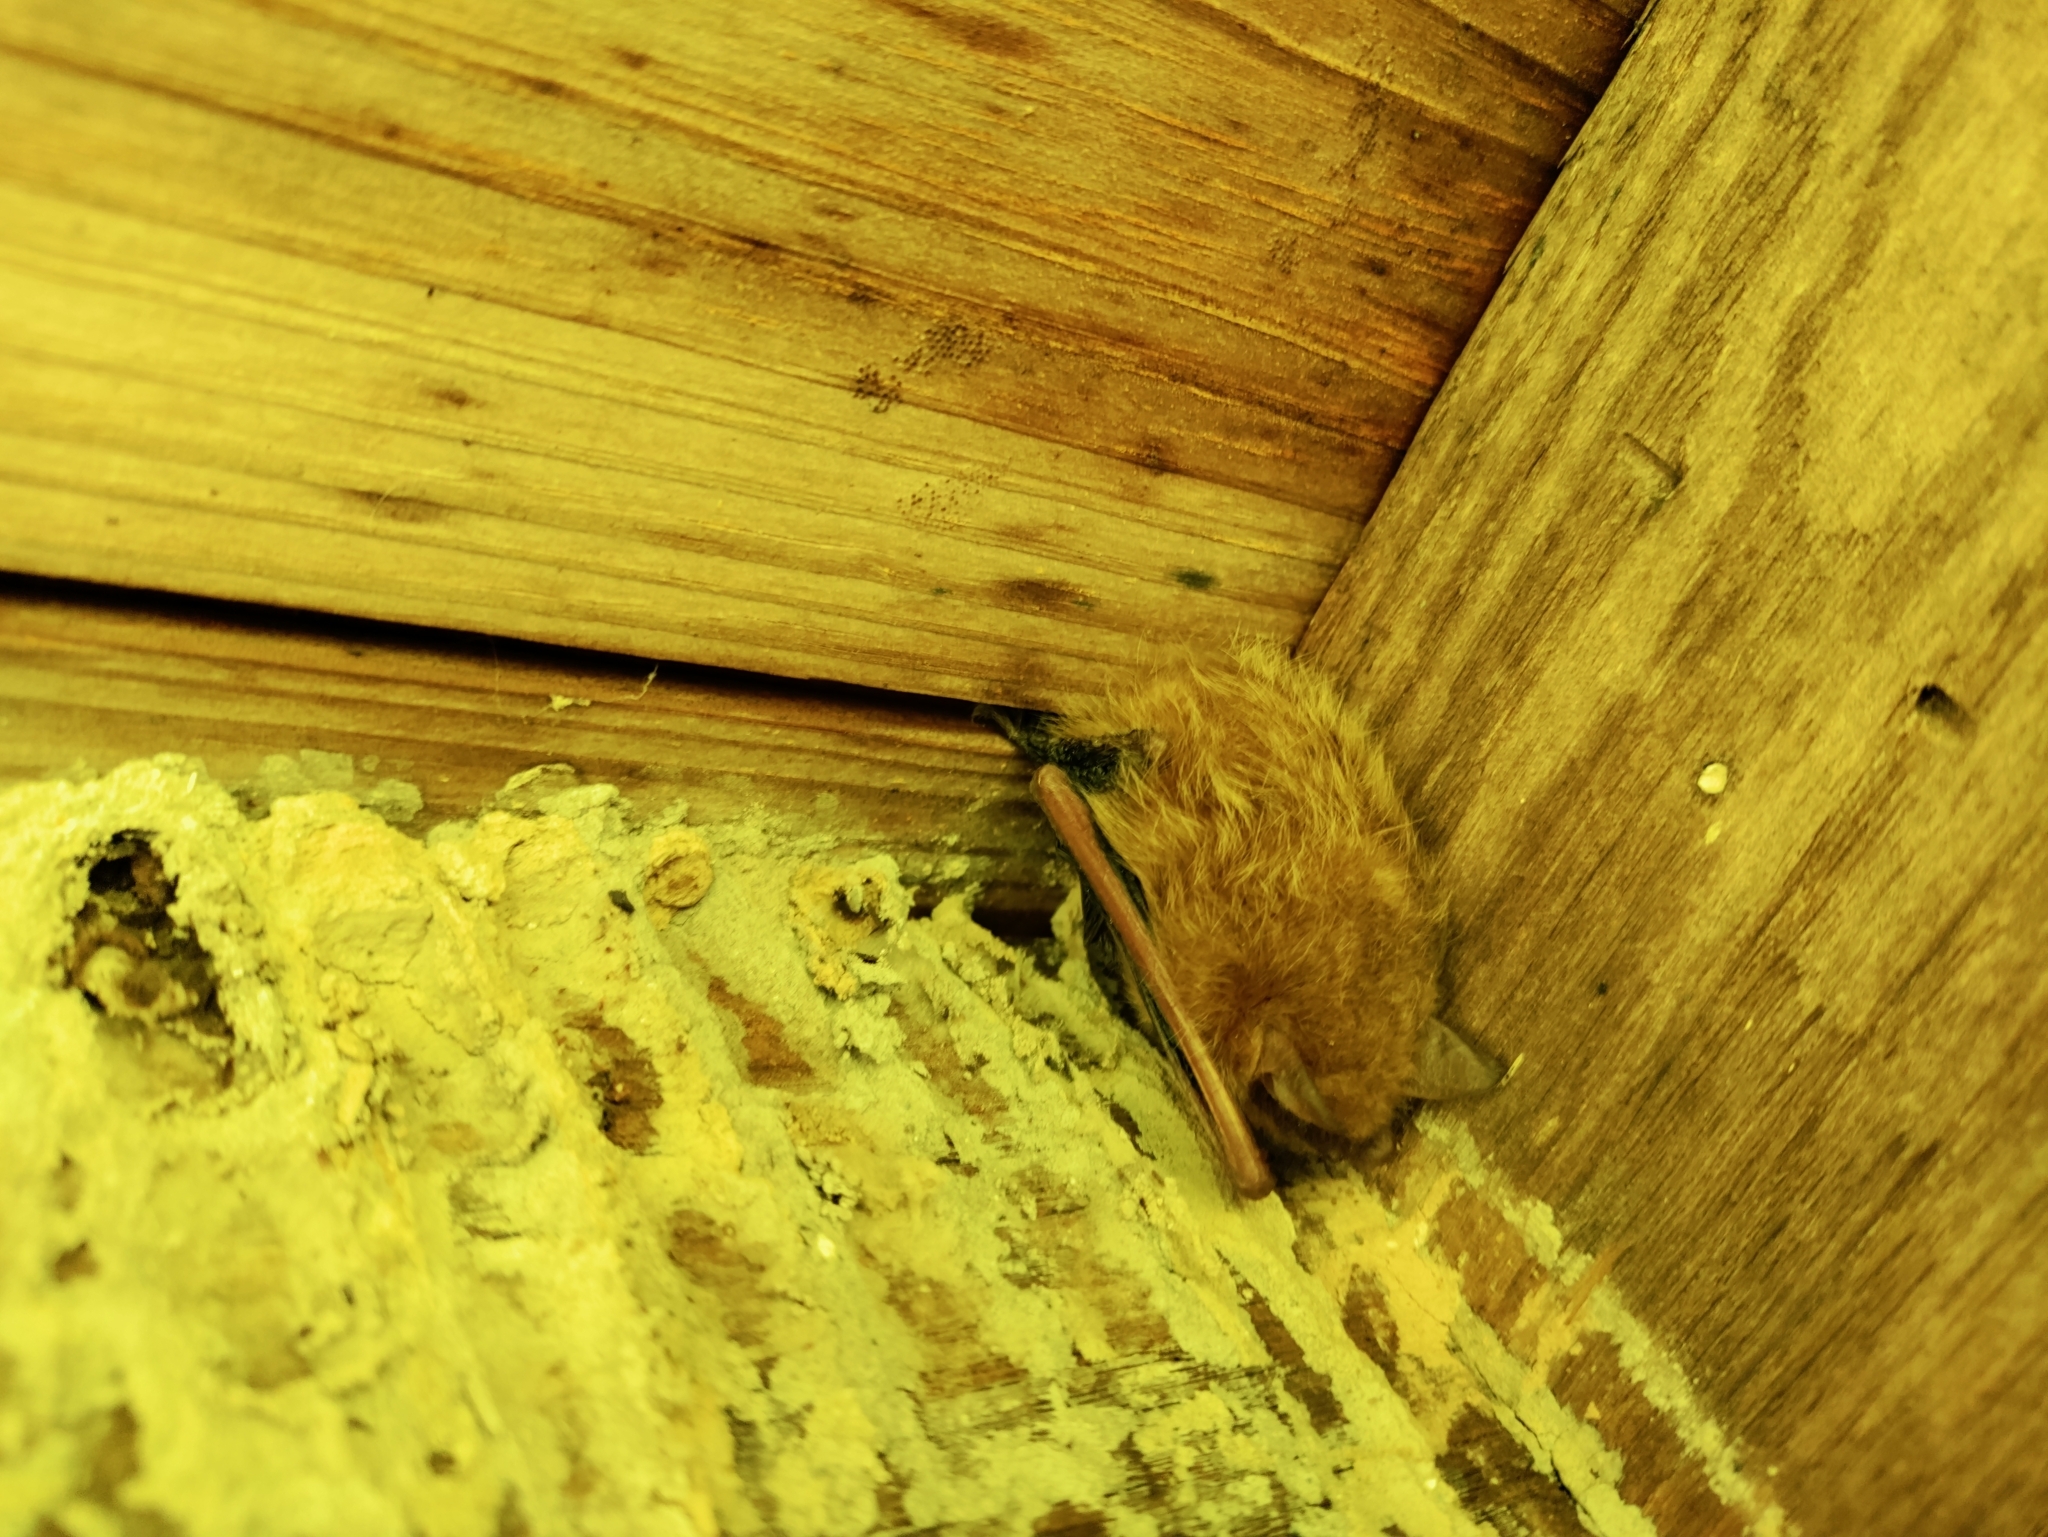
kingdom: Animalia
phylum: Chordata
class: Mammalia
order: Chiroptera
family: Vespertilionidae
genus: Perimyotis
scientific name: Perimyotis subflavus
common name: Eastern pipistrelle
